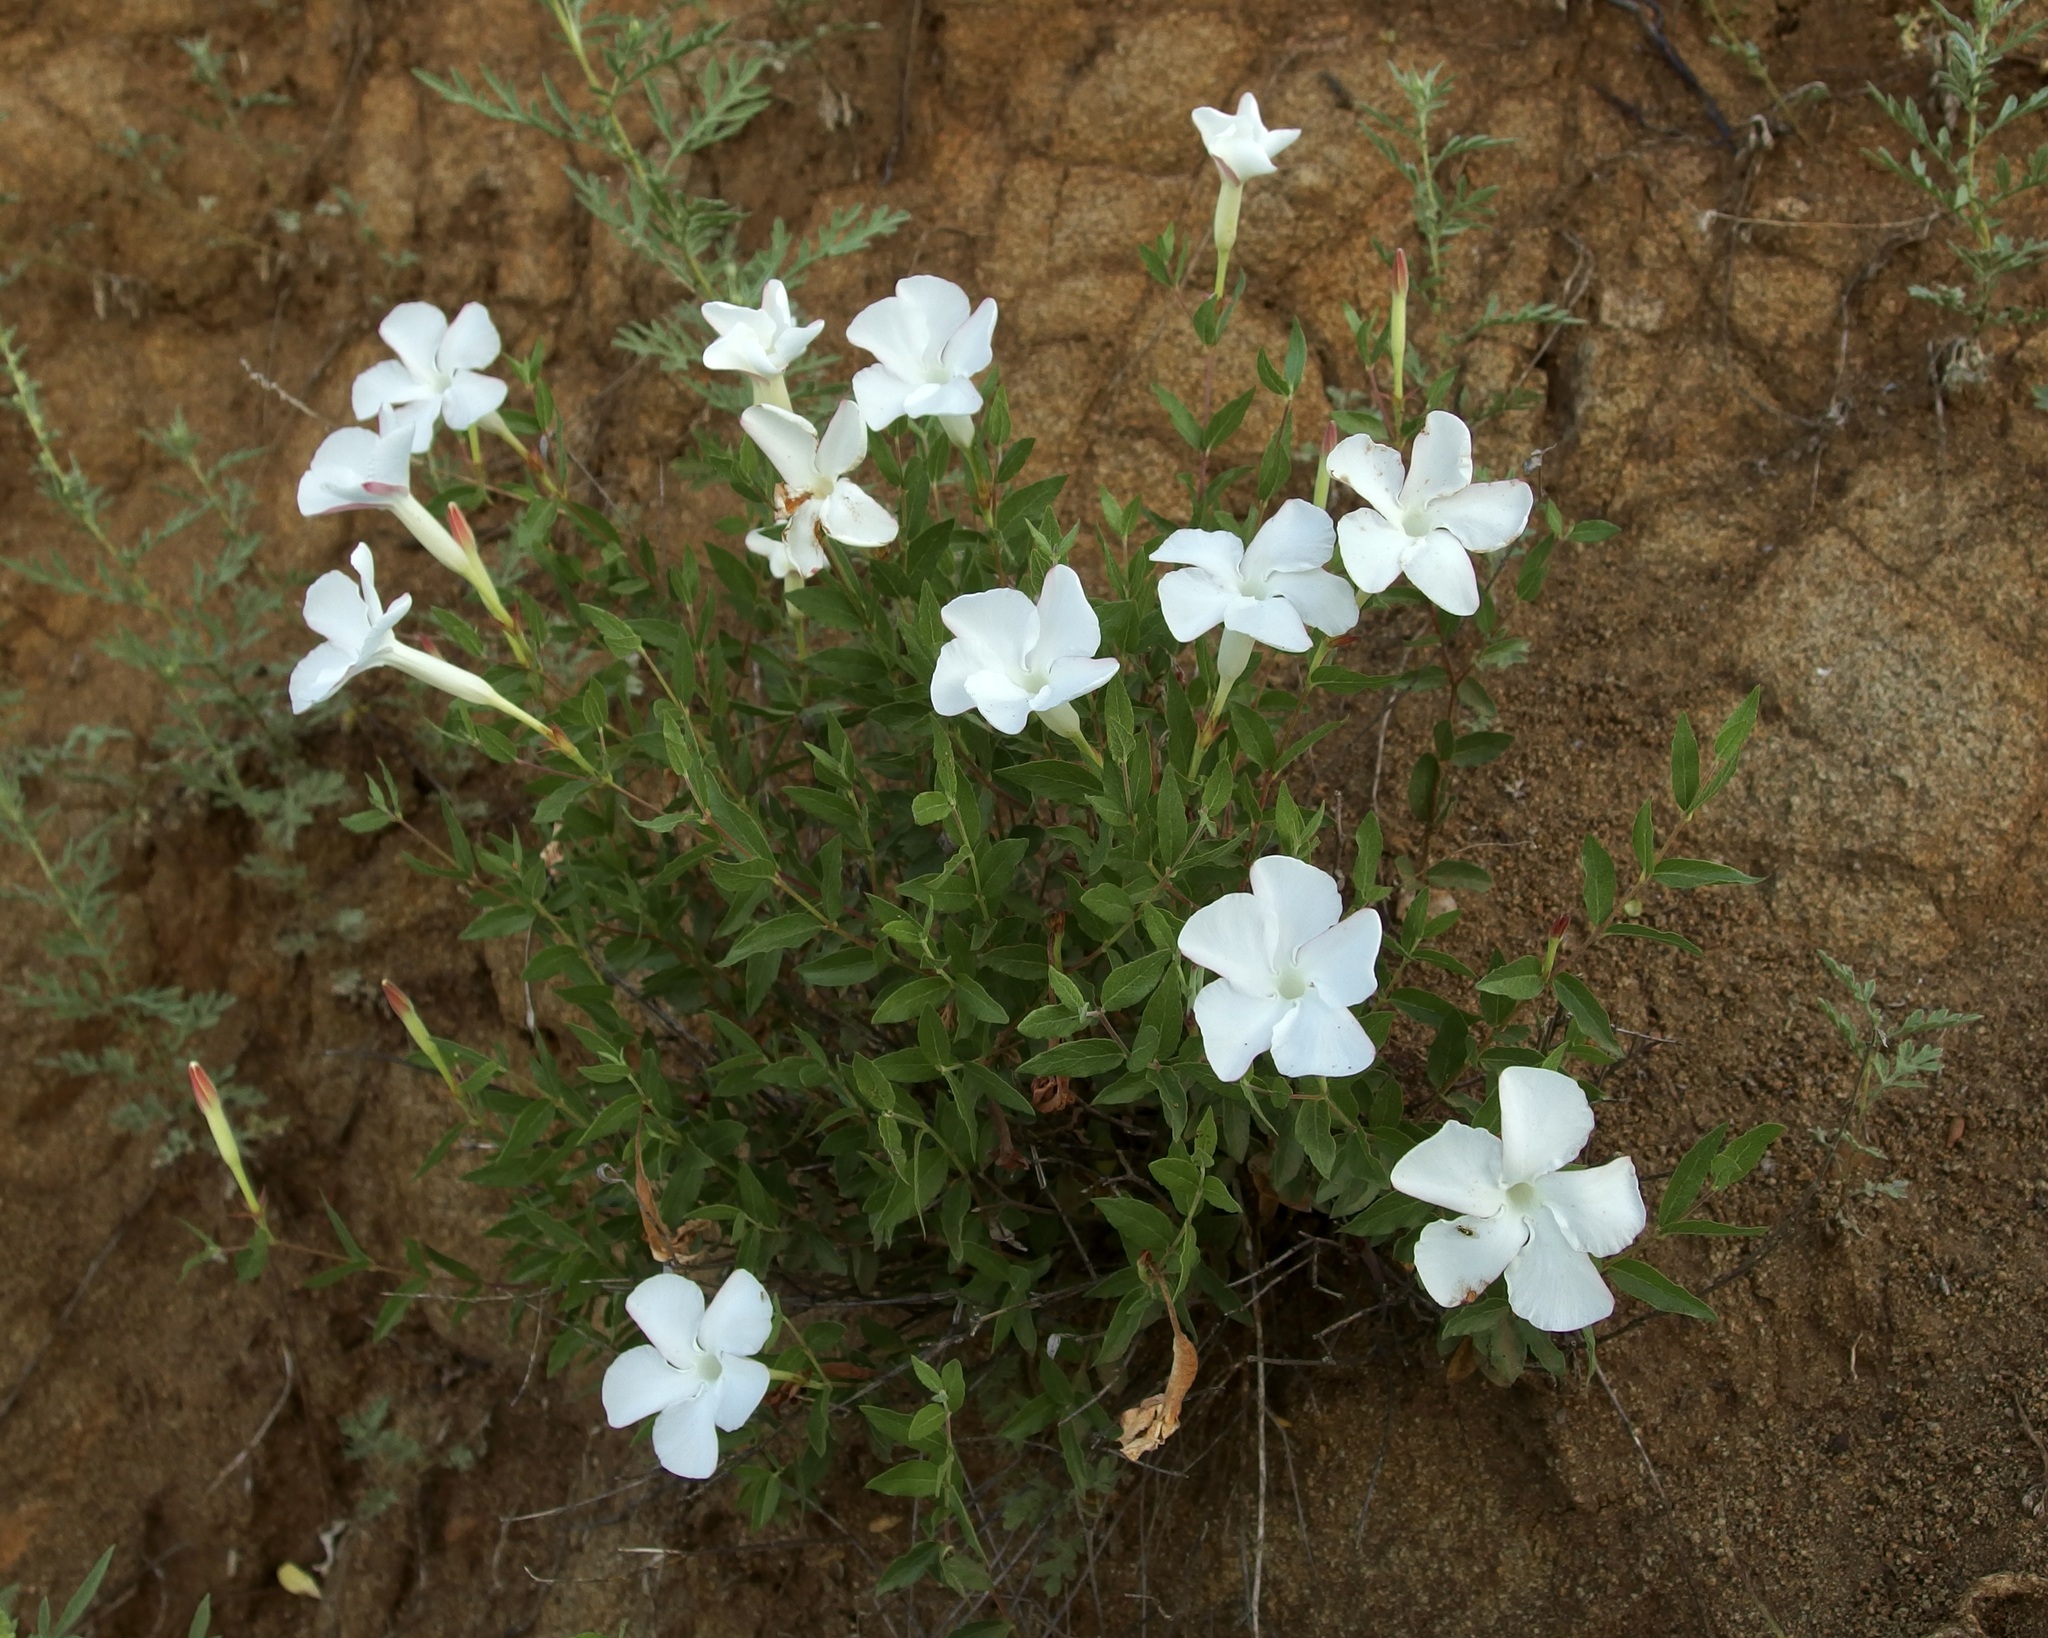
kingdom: Plantae
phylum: Tracheophyta
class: Magnoliopsida
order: Gentianales
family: Apocynaceae
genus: Mandevilla
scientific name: Mandevilla brachysiphon
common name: Huachuca mountain rocktrumpet
